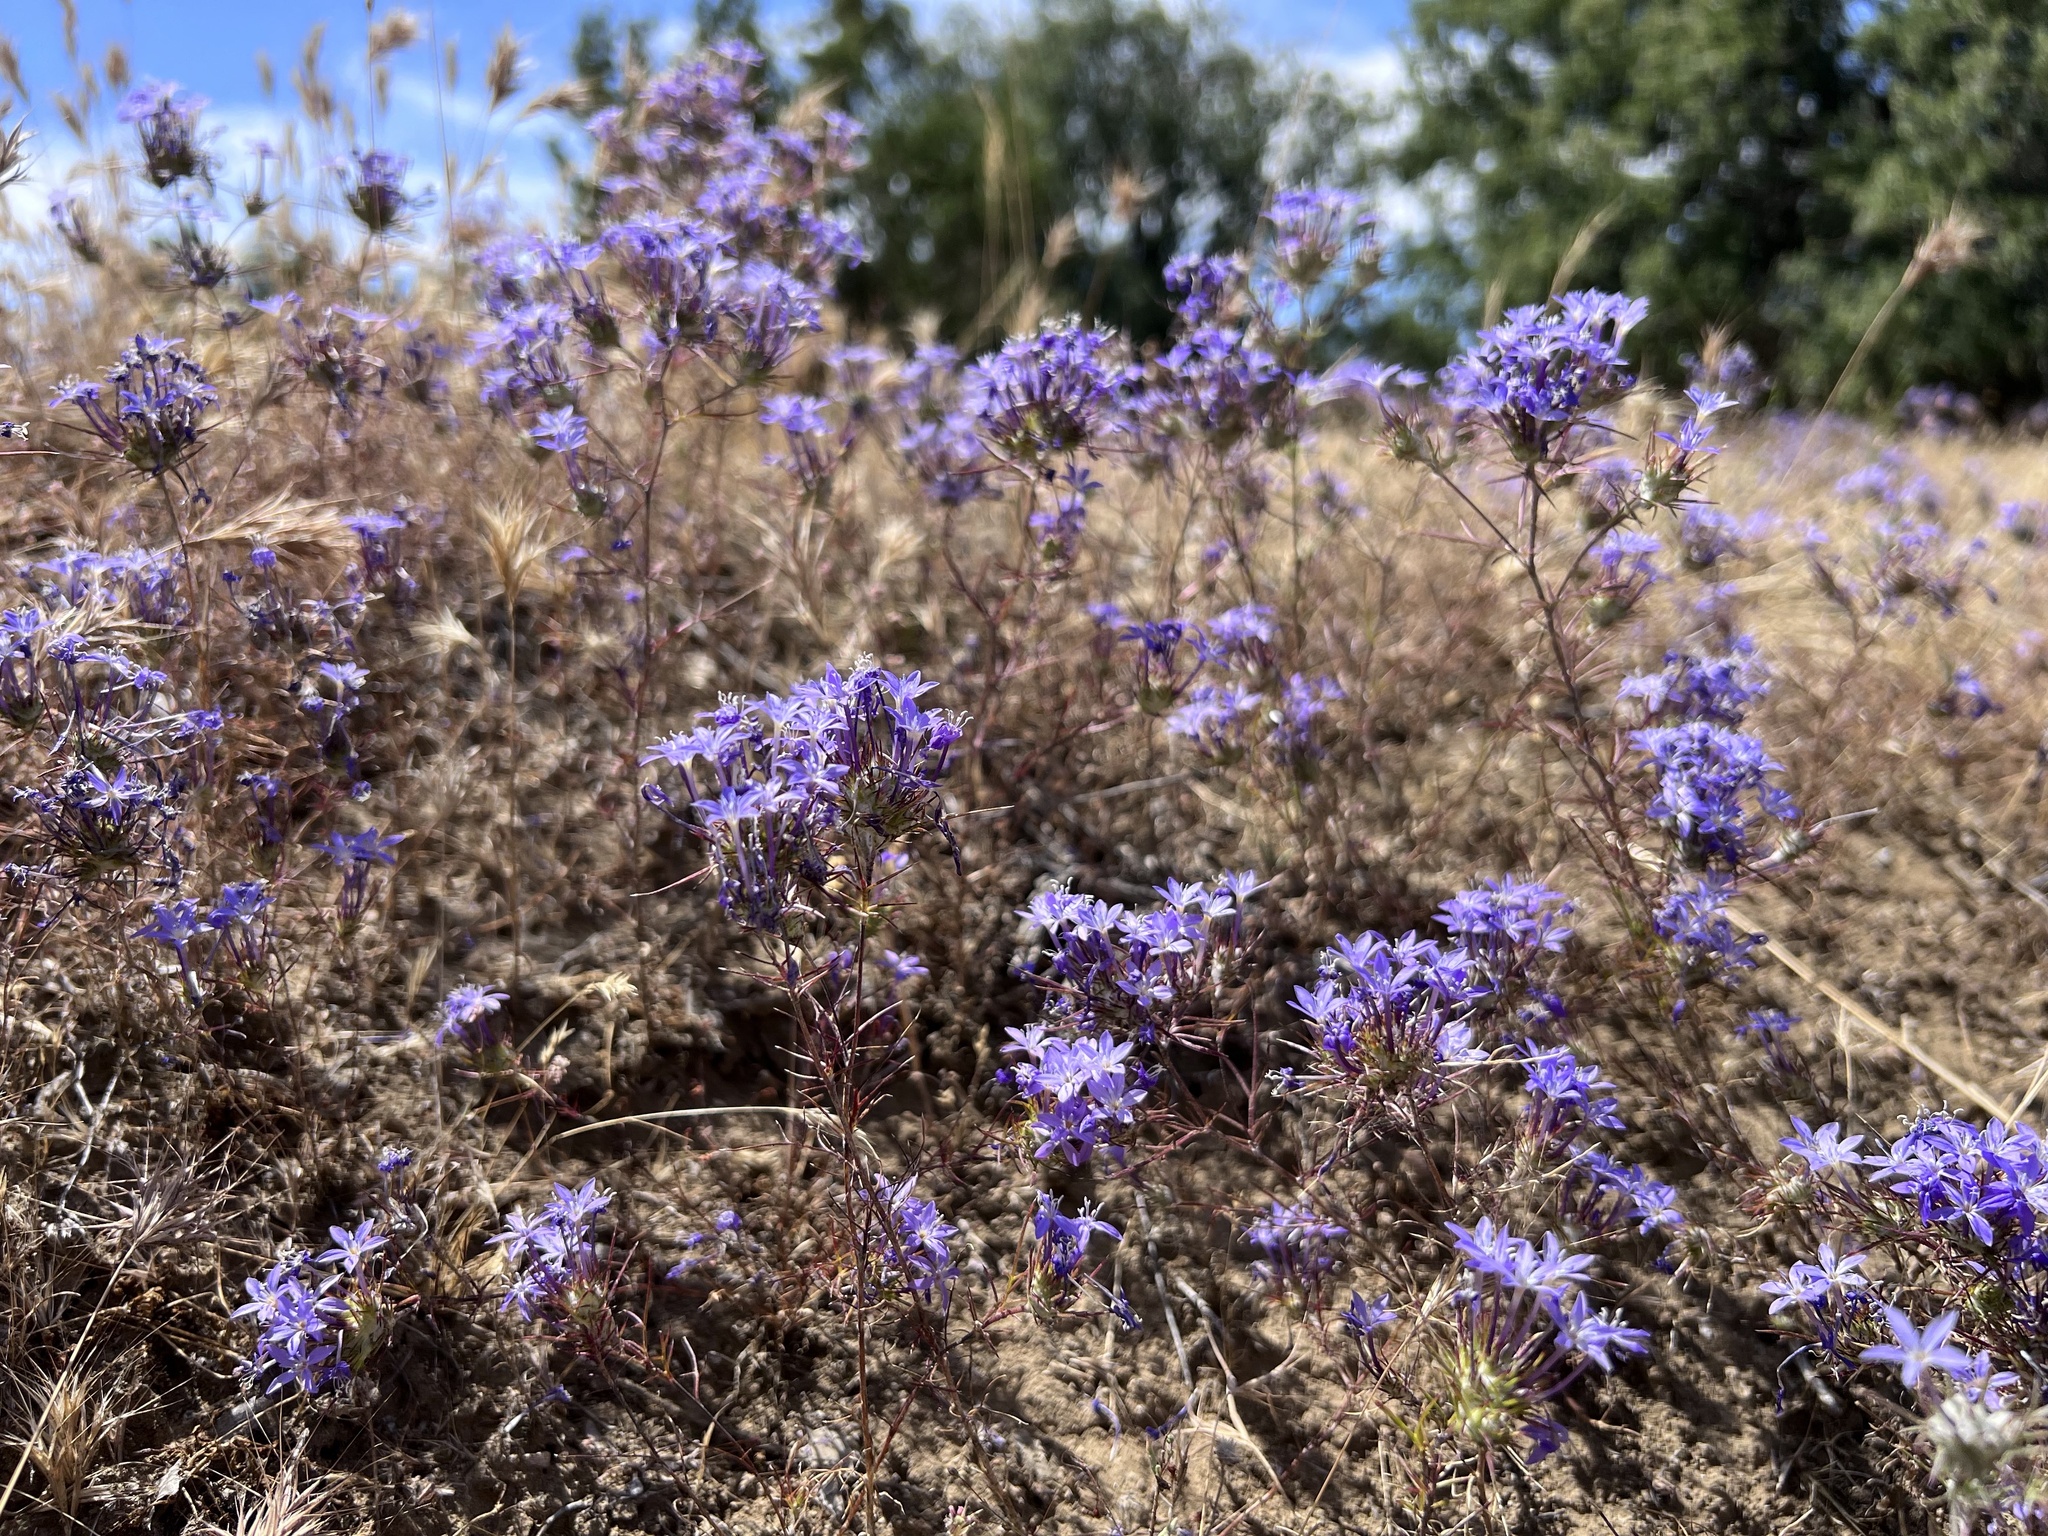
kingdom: Plantae
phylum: Tracheophyta
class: Magnoliopsida
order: Ericales
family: Polemoniaceae
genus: Eriastrum
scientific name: Eriastrum pluriflorum
